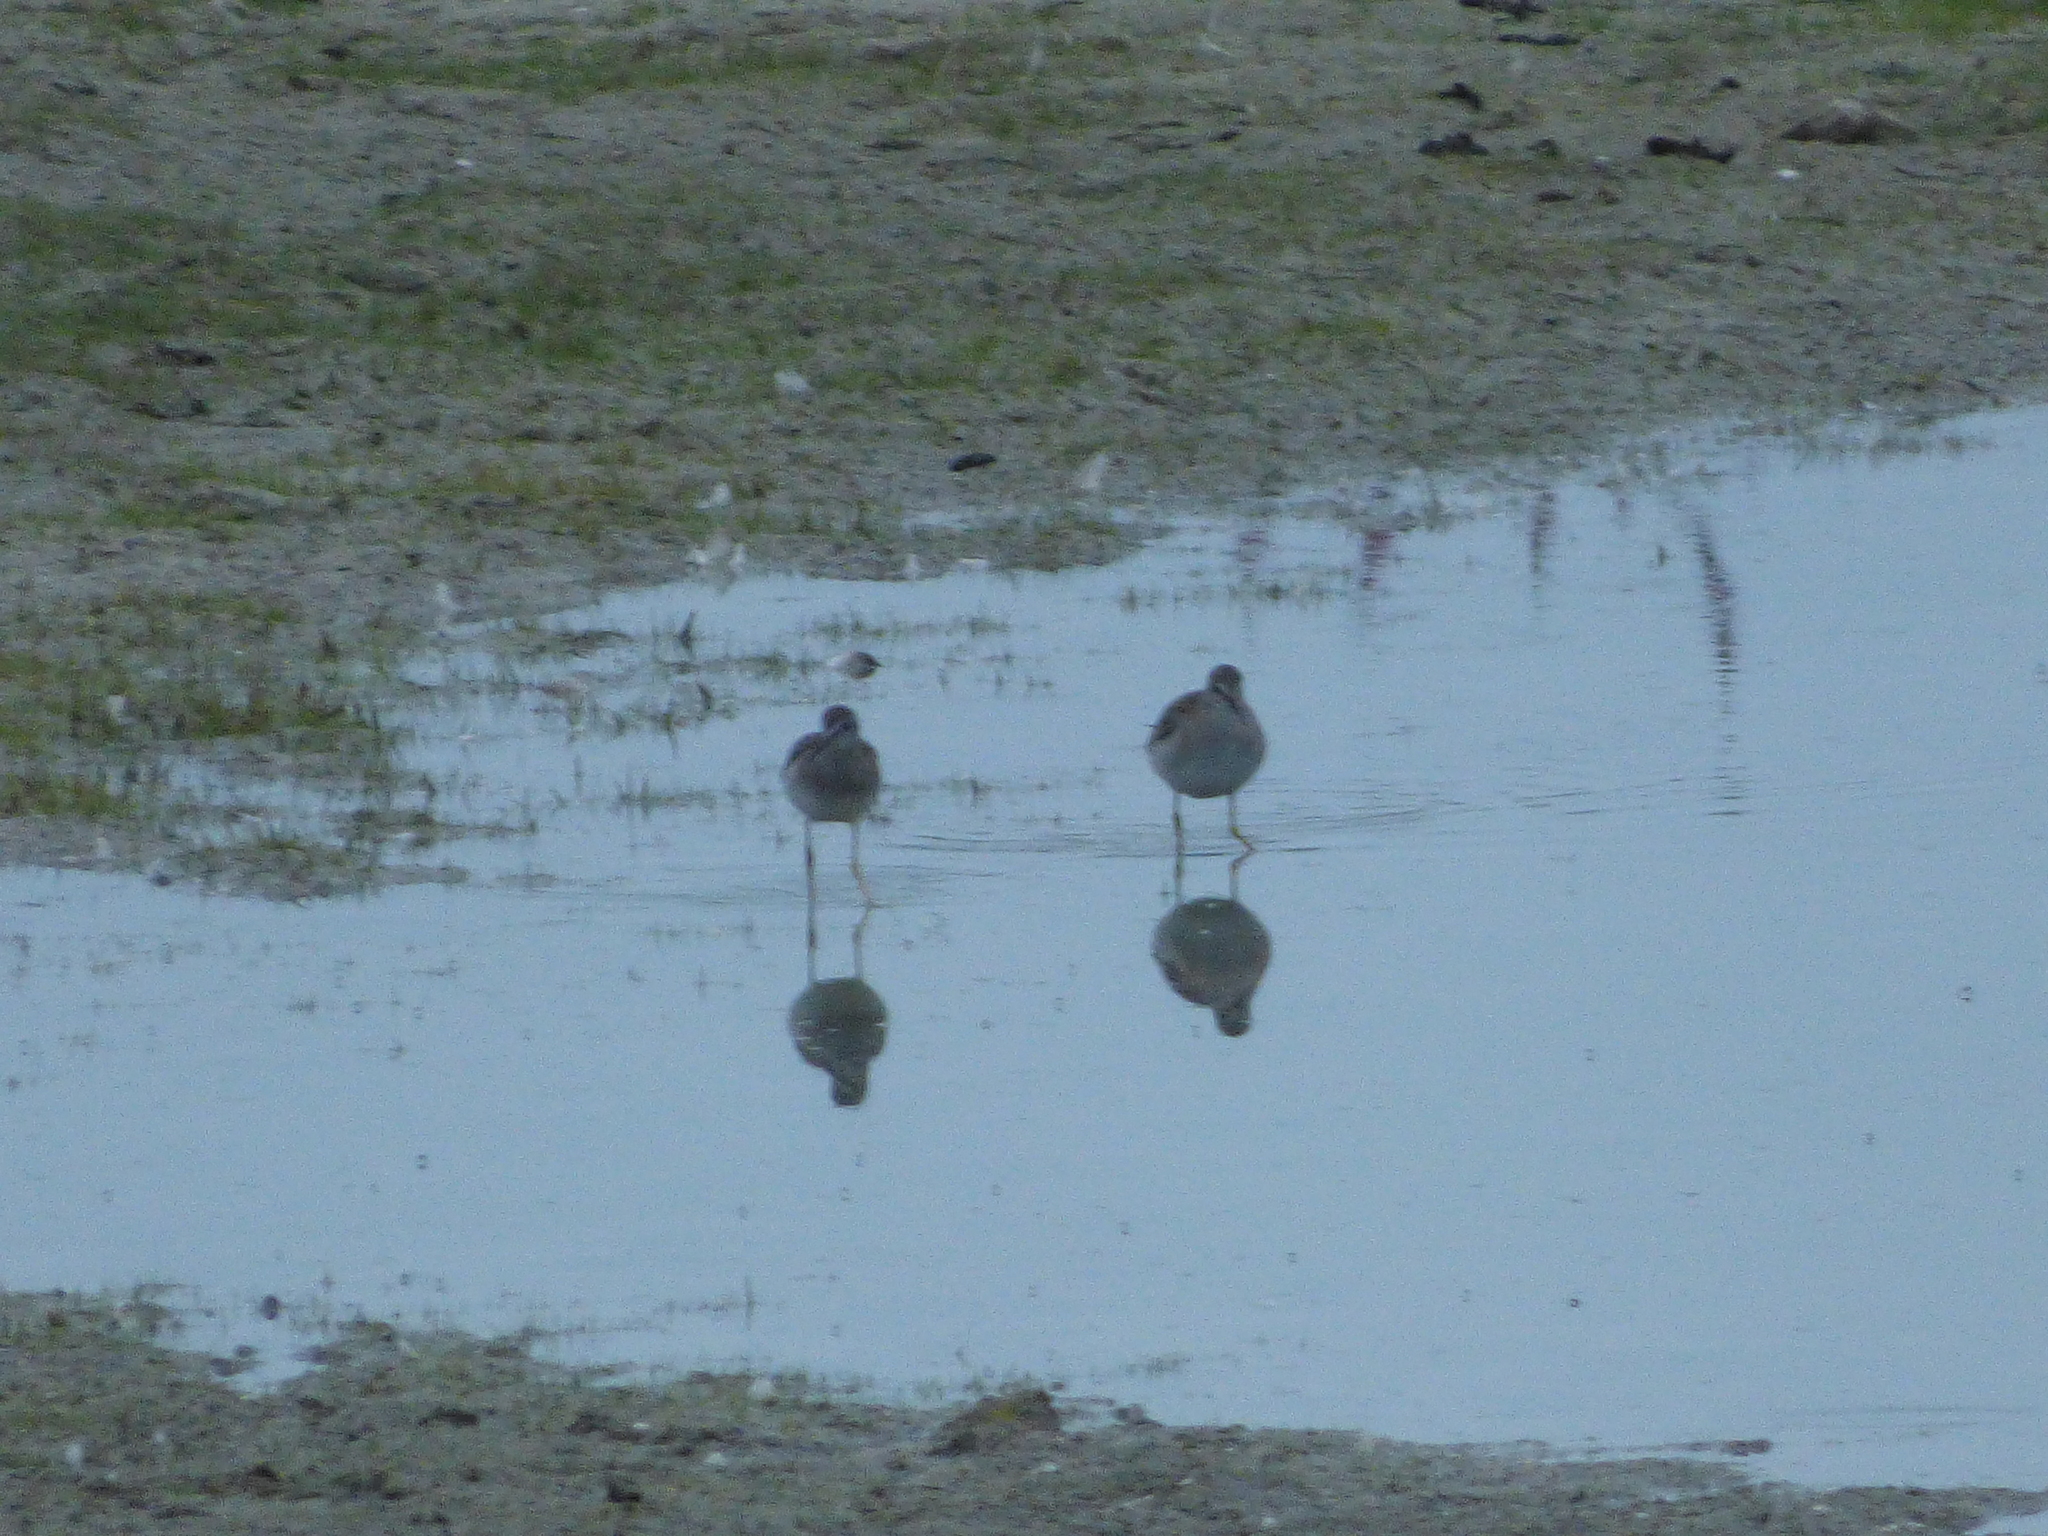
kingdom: Animalia
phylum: Chordata
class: Aves
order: Charadriiformes
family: Scolopacidae
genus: Tringa
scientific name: Tringa flavipes
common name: Lesser yellowlegs
